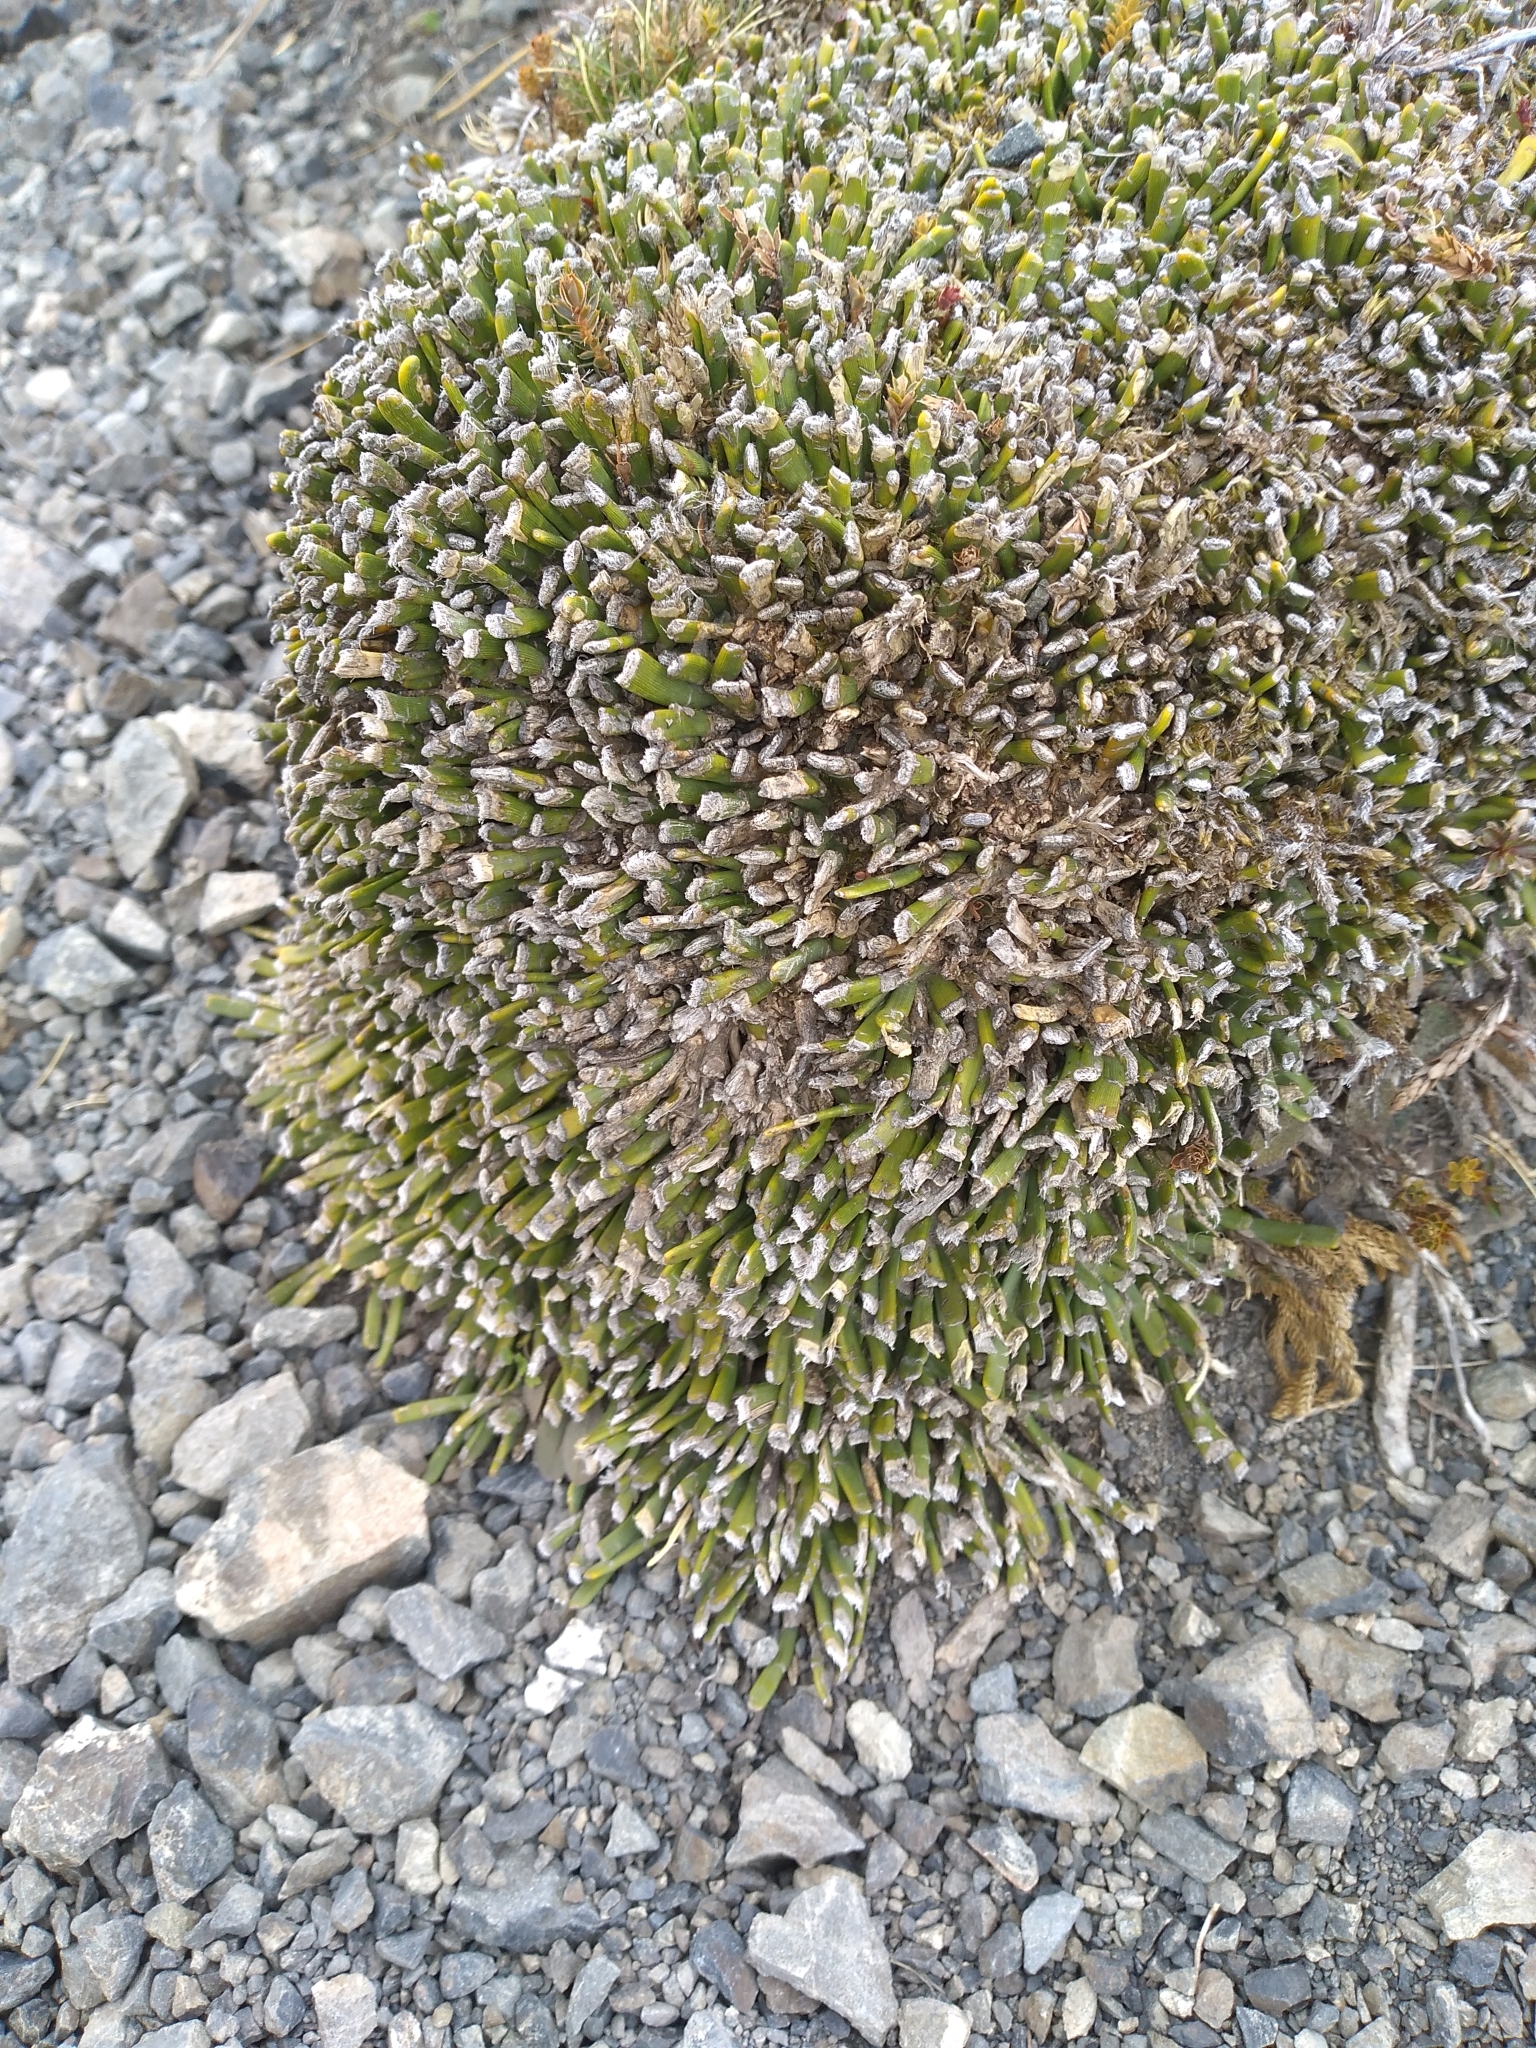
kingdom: Plantae
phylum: Tracheophyta
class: Magnoliopsida
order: Fabales
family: Fabaceae
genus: Carmichaelia
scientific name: Carmichaelia monroi
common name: Stout dwarf broom
